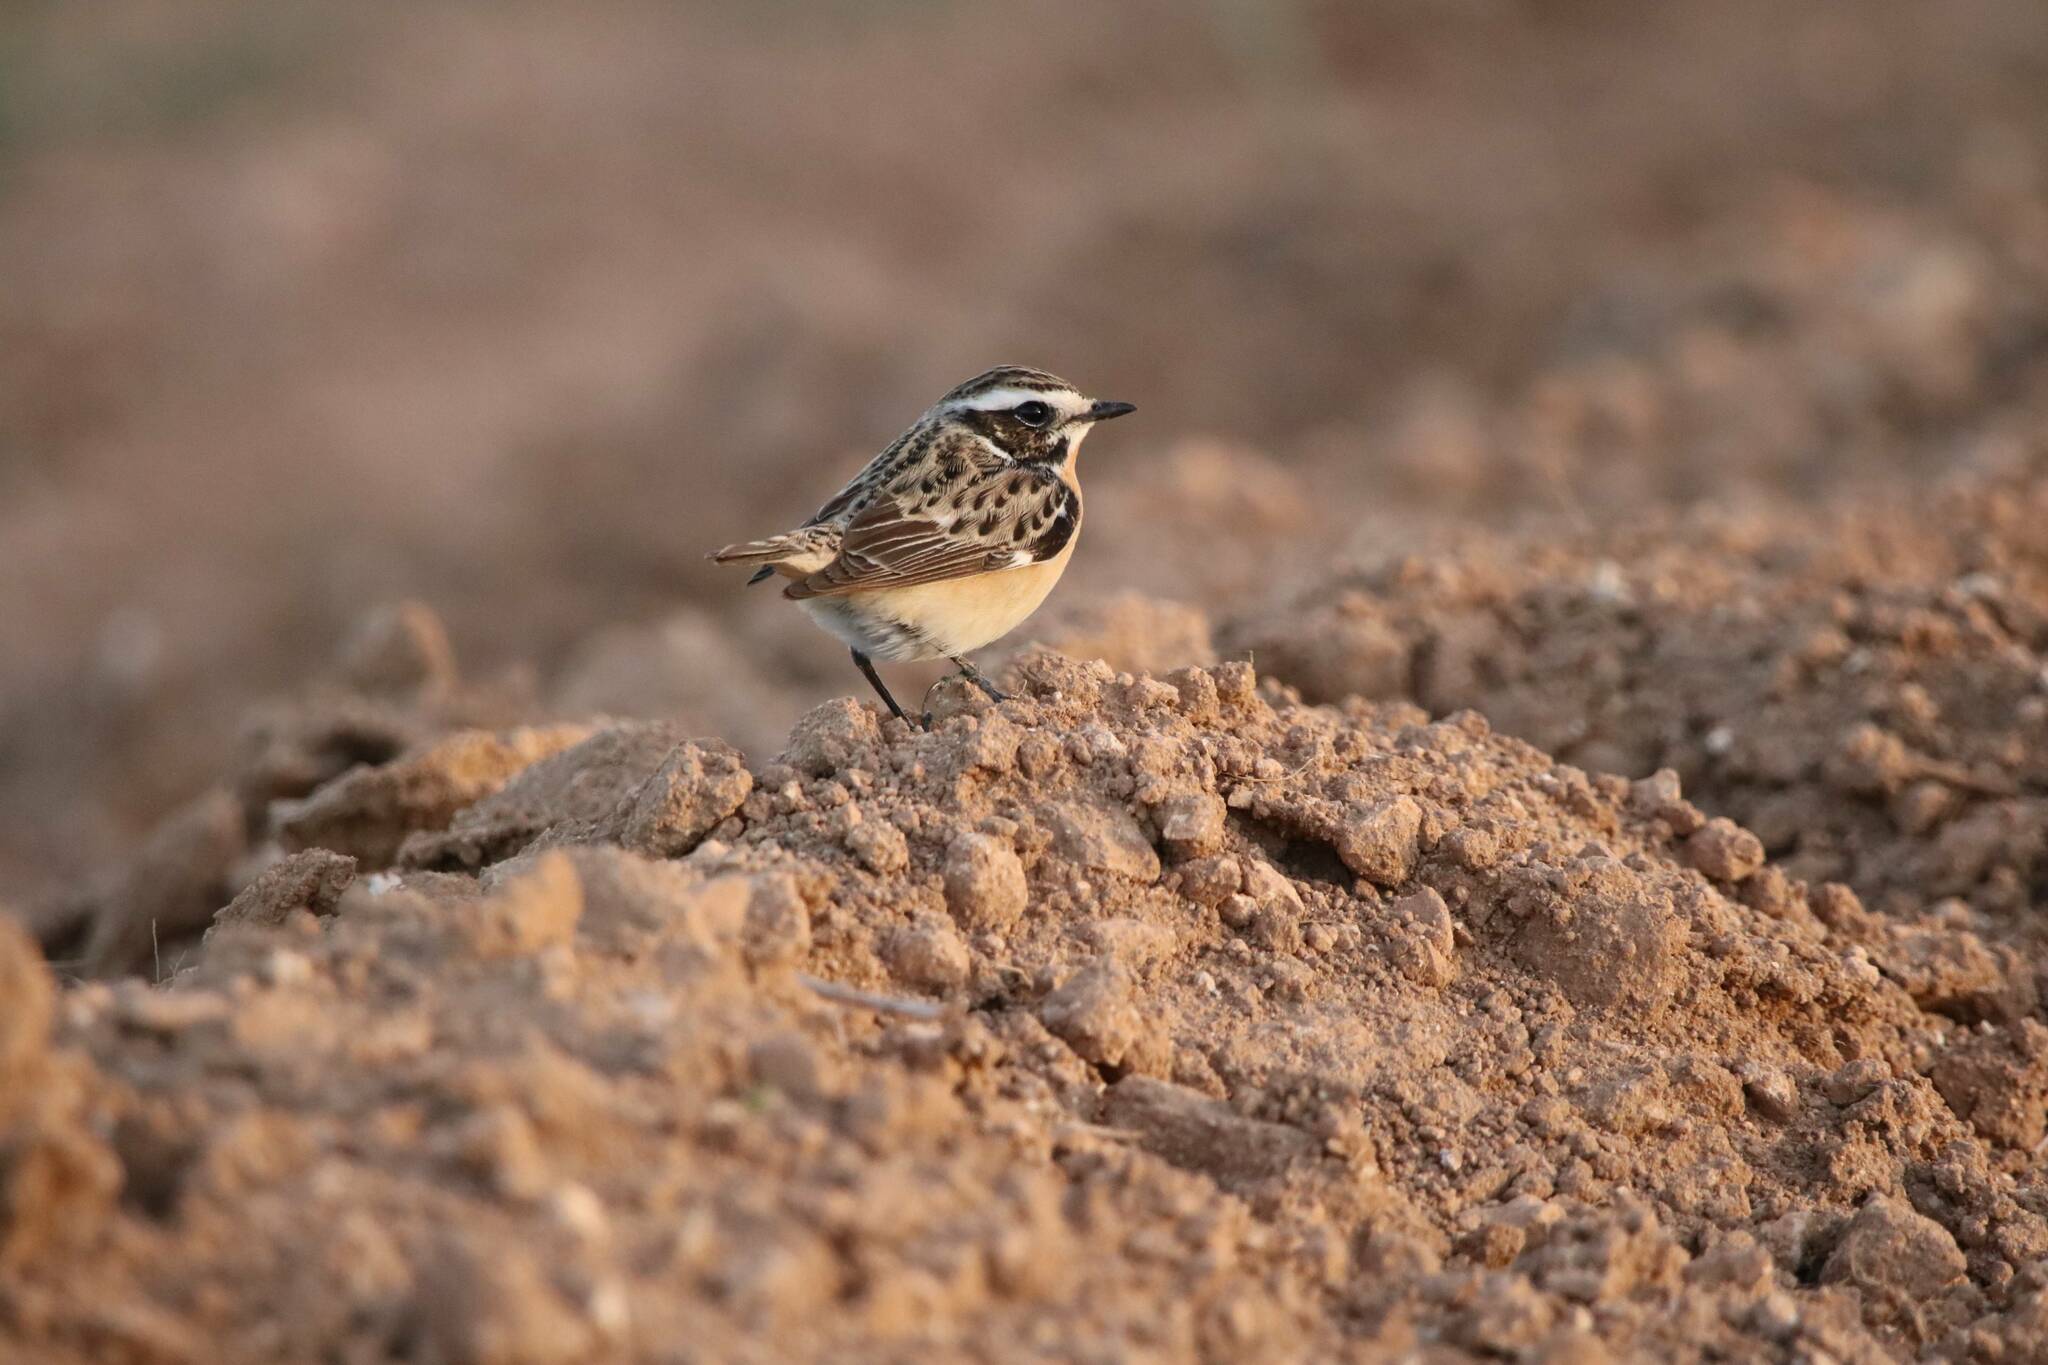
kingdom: Animalia
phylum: Chordata
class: Aves
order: Passeriformes
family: Muscicapidae
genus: Saxicola
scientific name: Saxicola rubetra
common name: Whinchat
